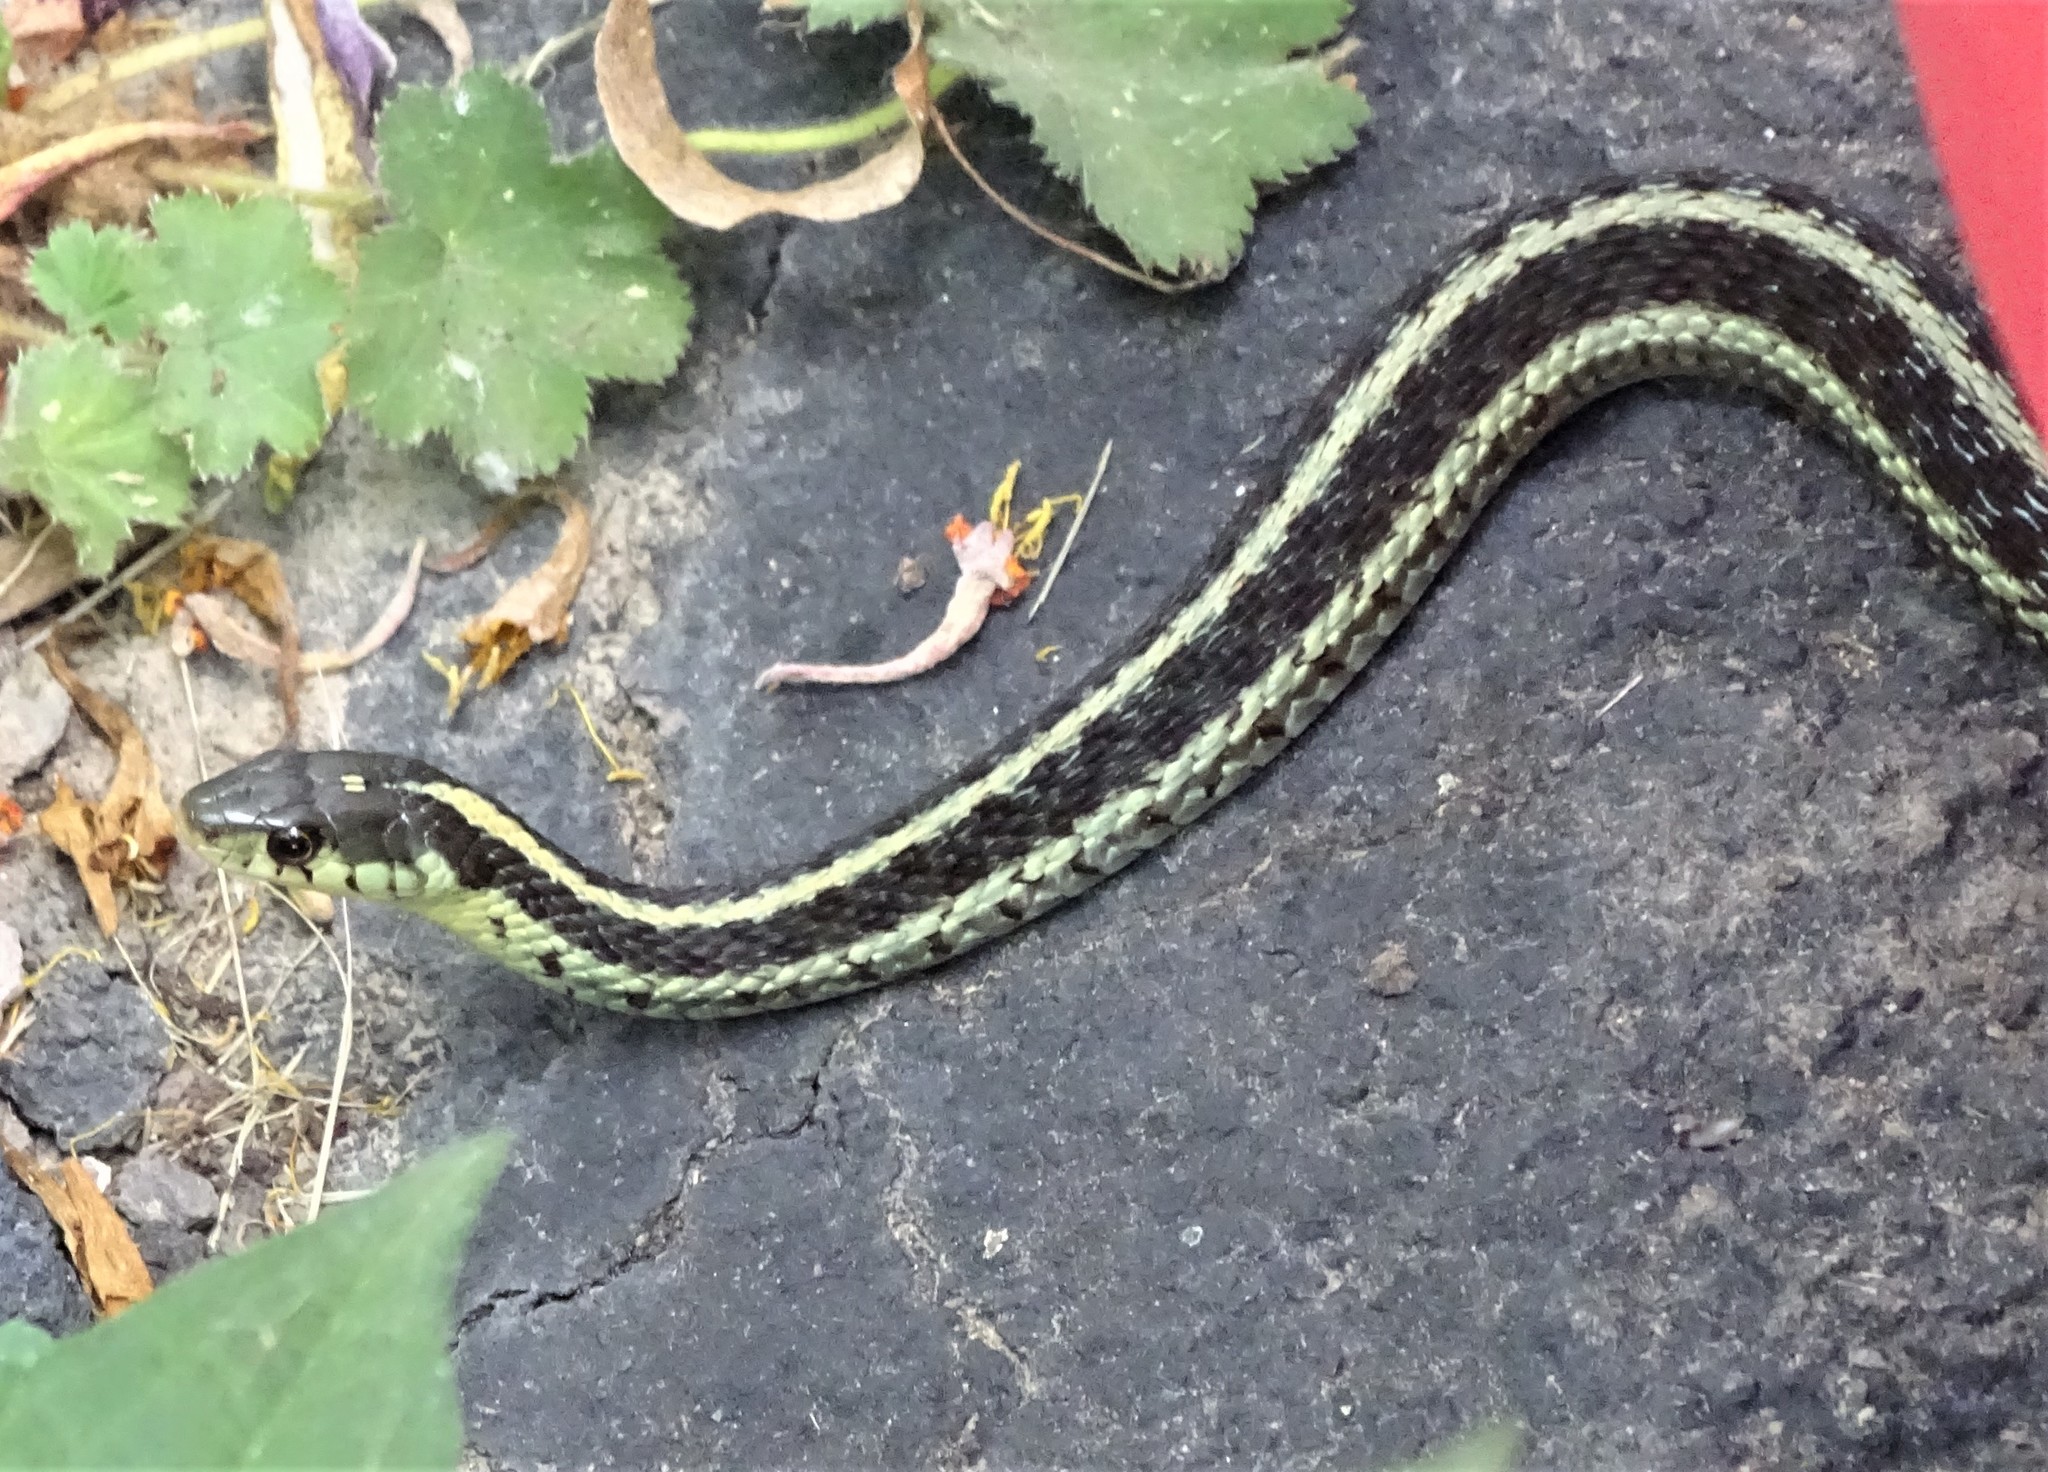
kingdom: Animalia
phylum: Chordata
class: Squamata
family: Colubridae
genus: Thamnophis
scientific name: Thamnophis sirtalis
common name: Common garter snake
